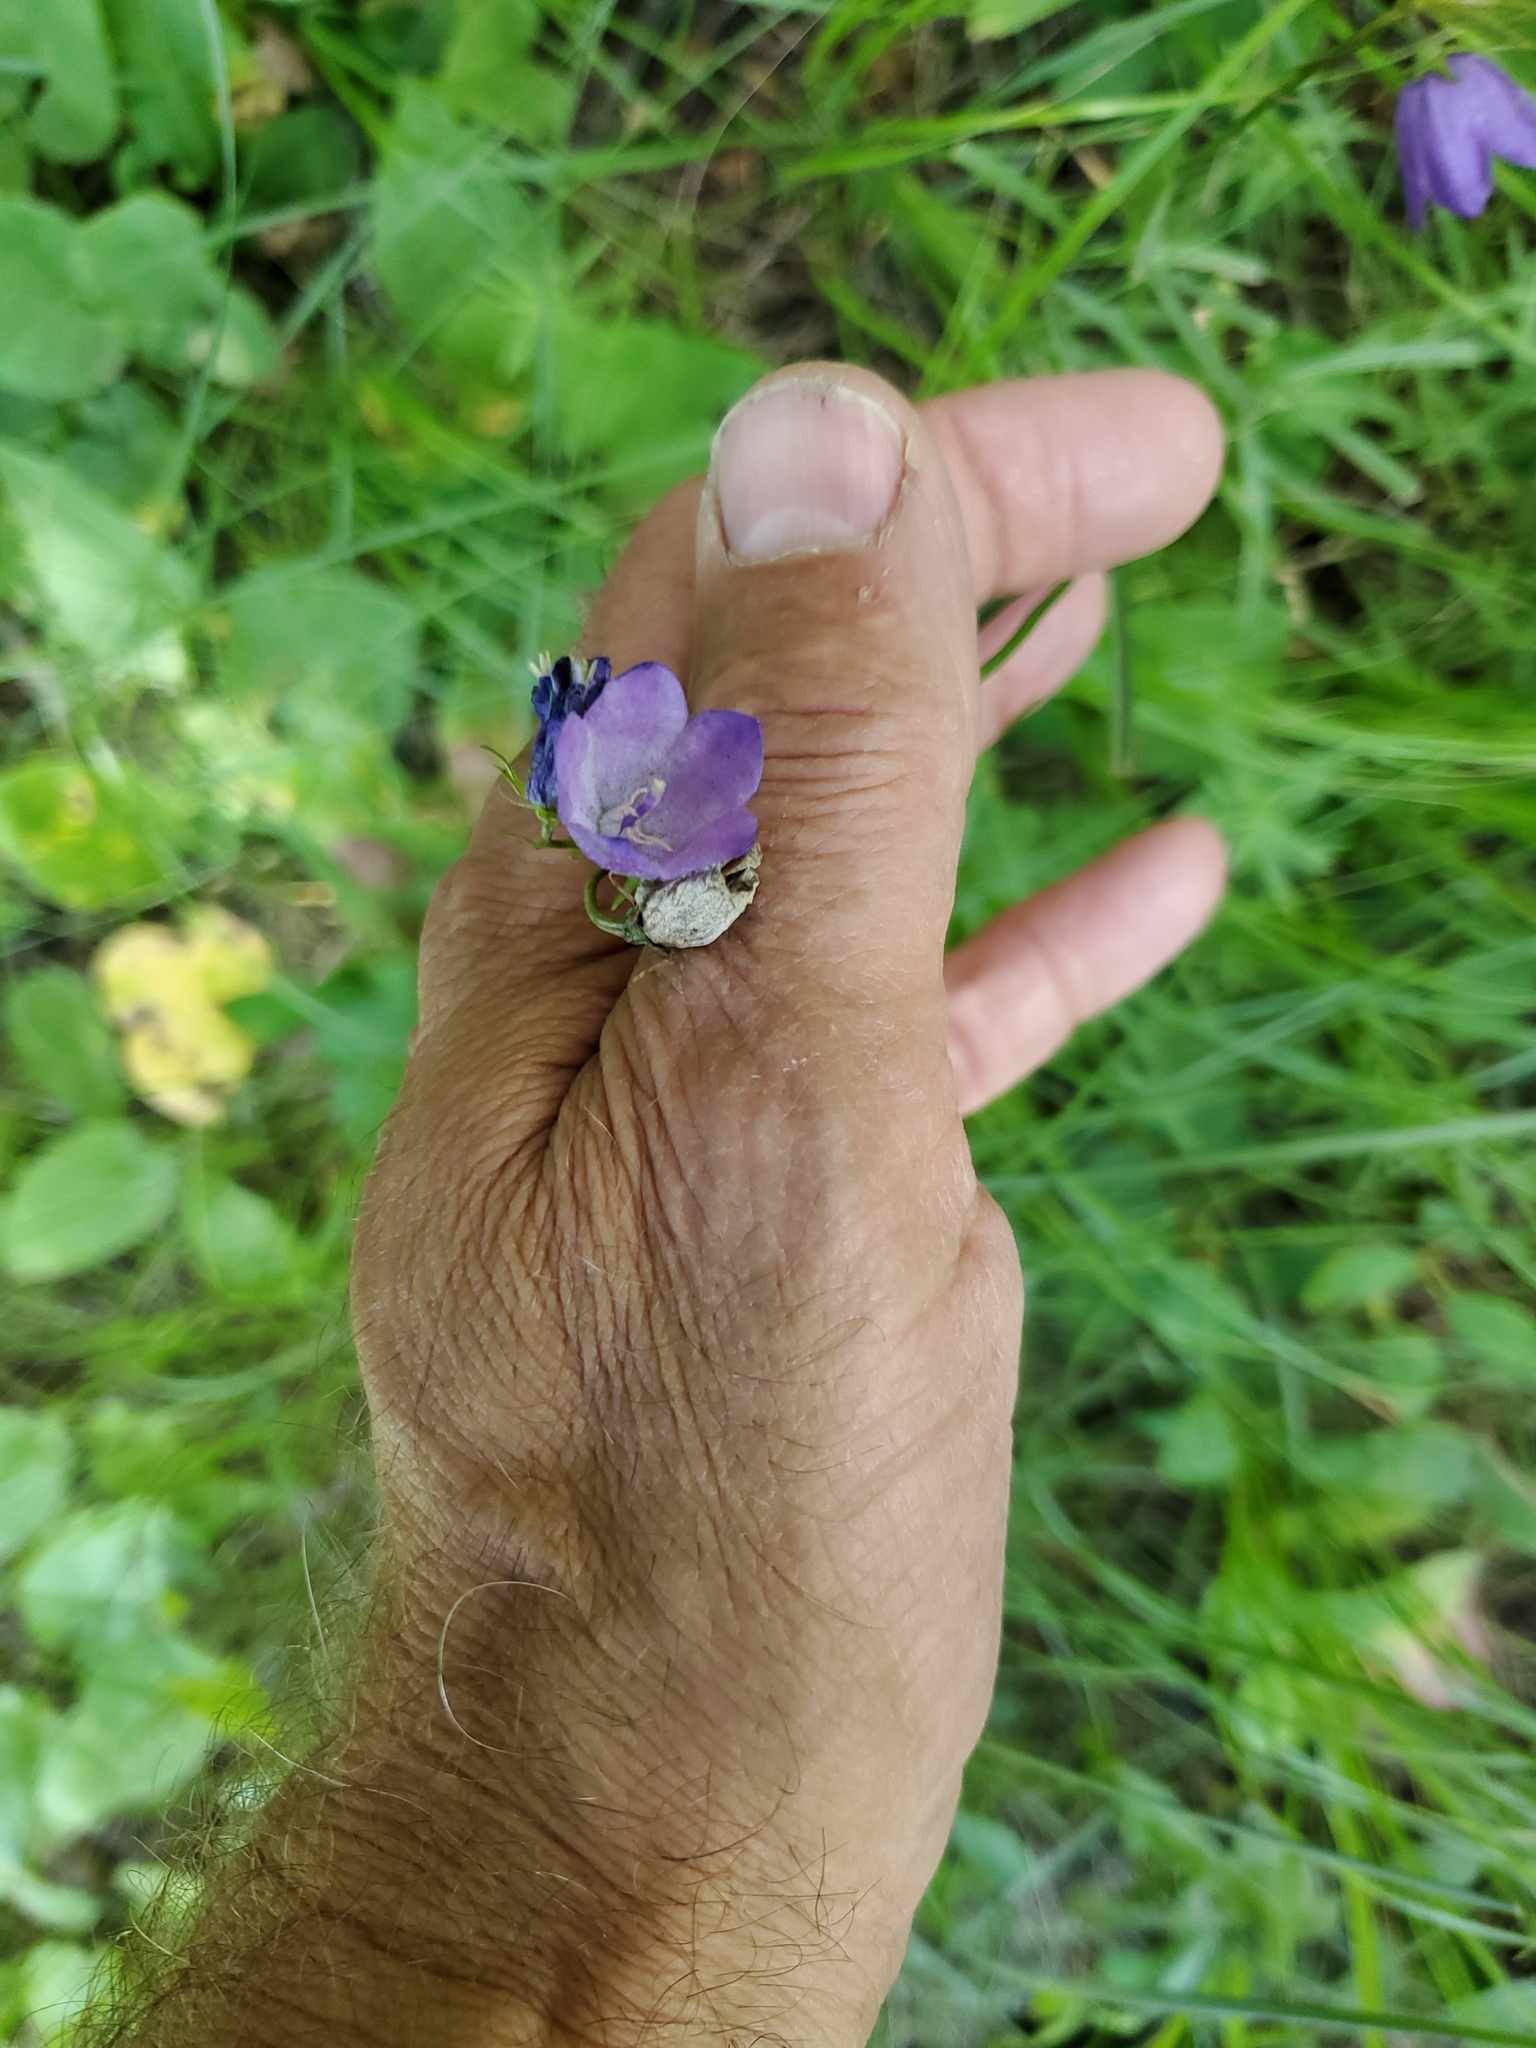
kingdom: Plantae
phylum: Tracheophyta
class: Magnoliopsida
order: Asterales
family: Campanulaceae
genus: Campanula
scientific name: Campanula petiolata
